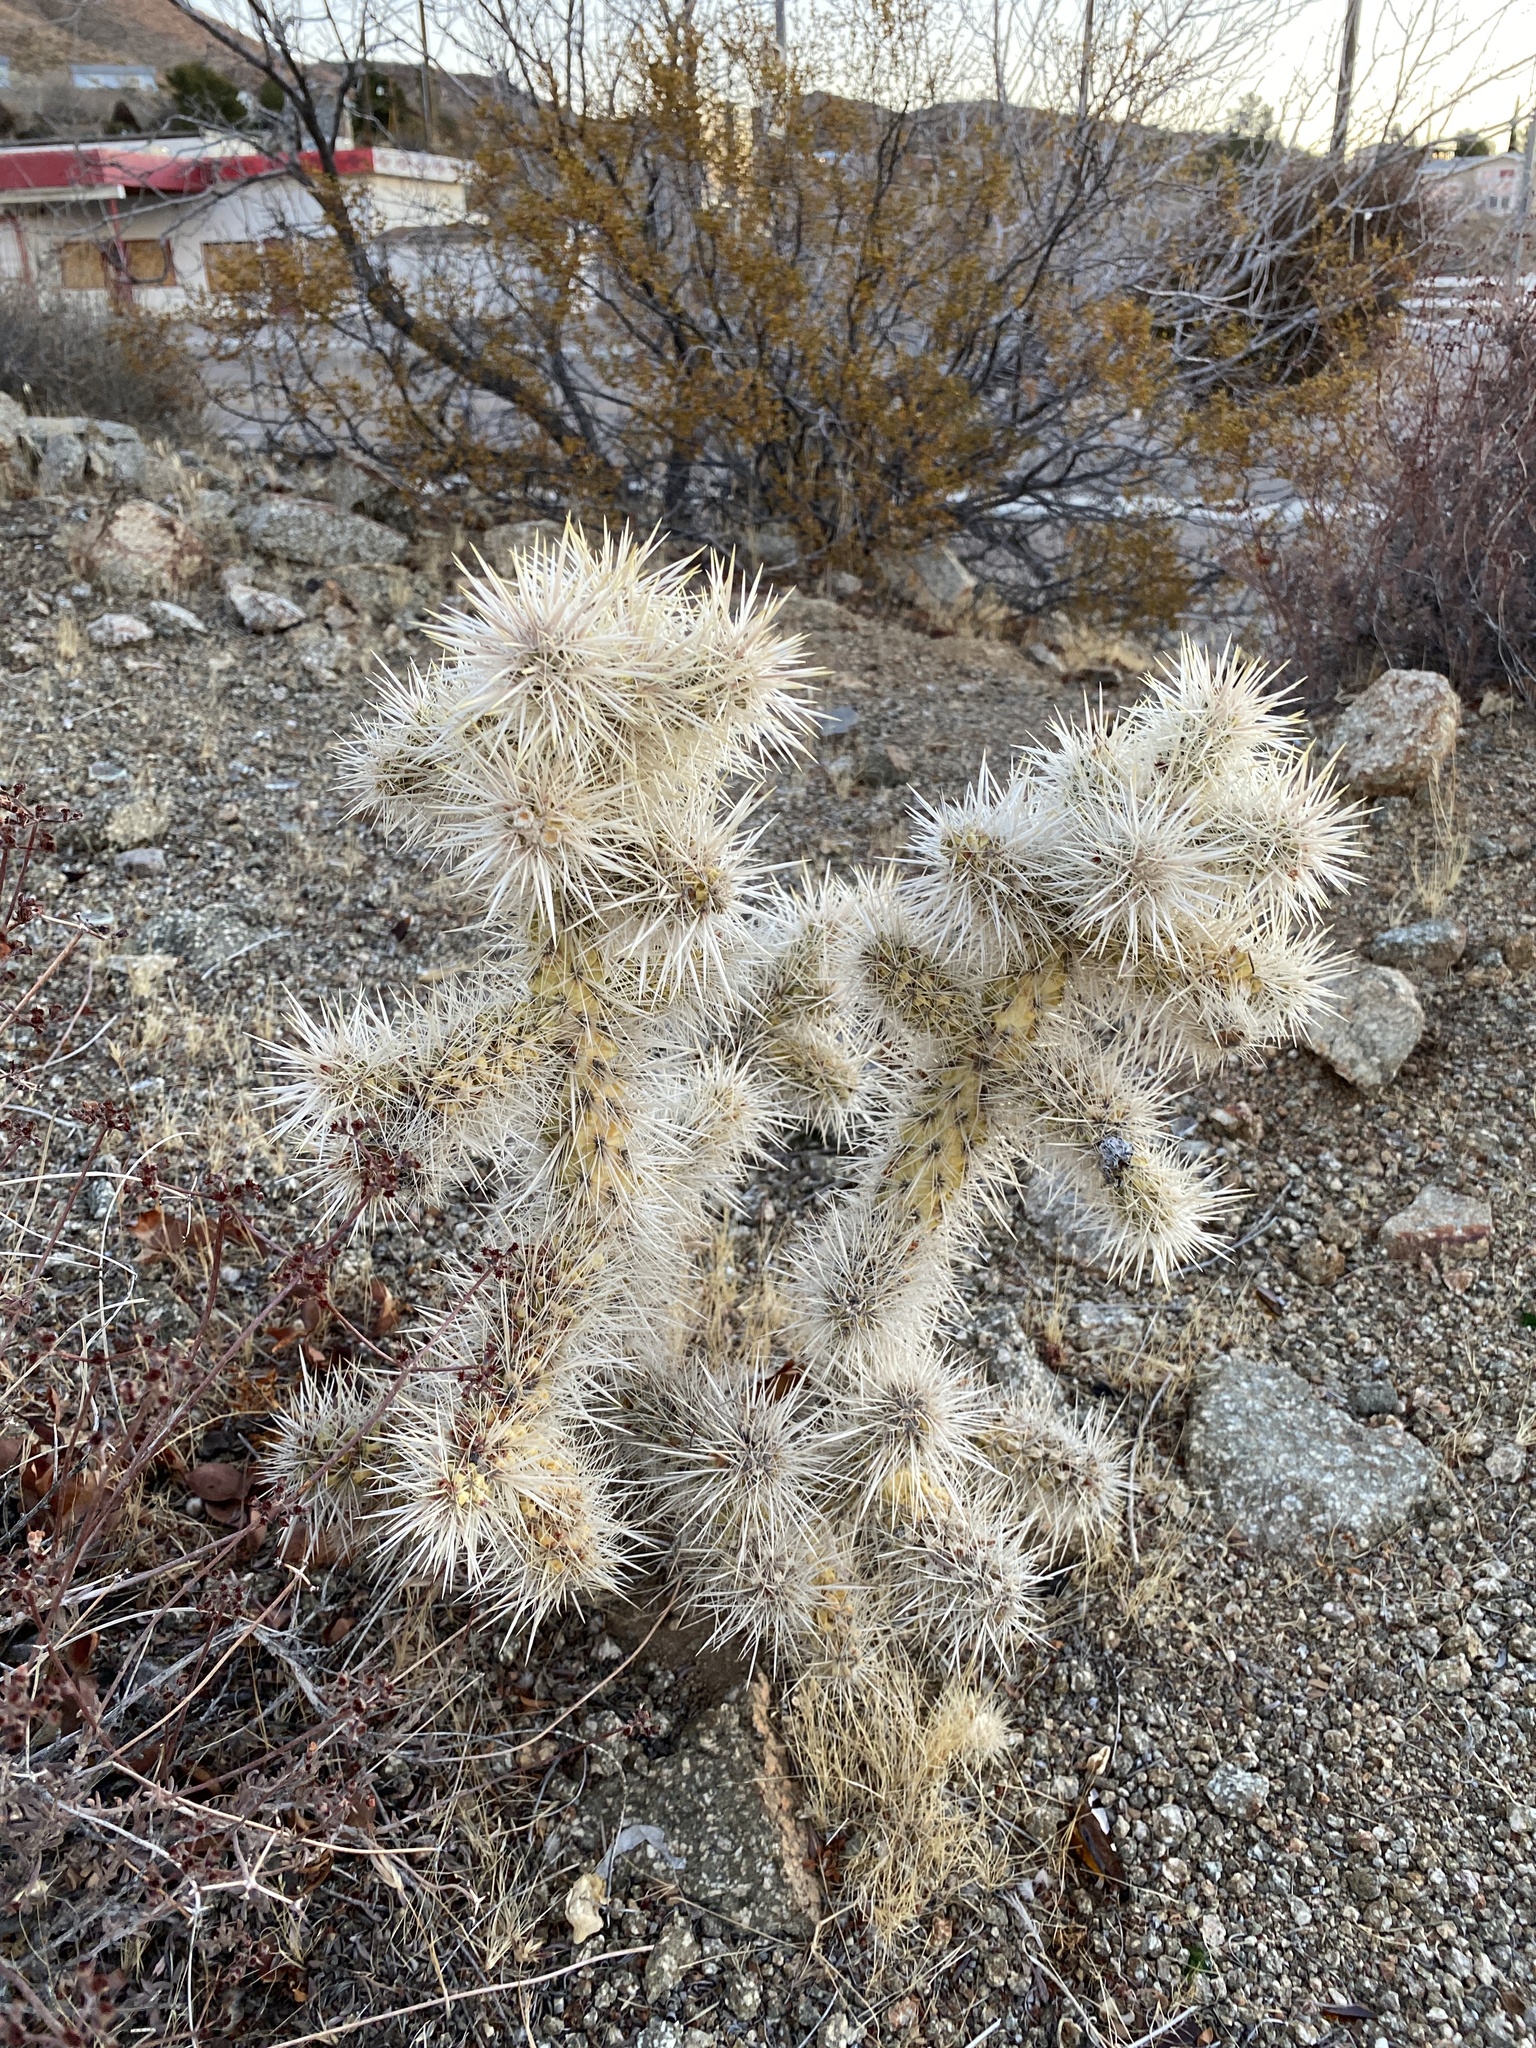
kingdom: Plantae
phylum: Tracheophyta
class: Magnoliopsida
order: Caryophyllales
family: Cactaceae
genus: Cylindropuntia
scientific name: Cylindropuntia echinocarpa
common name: Ground cholla
